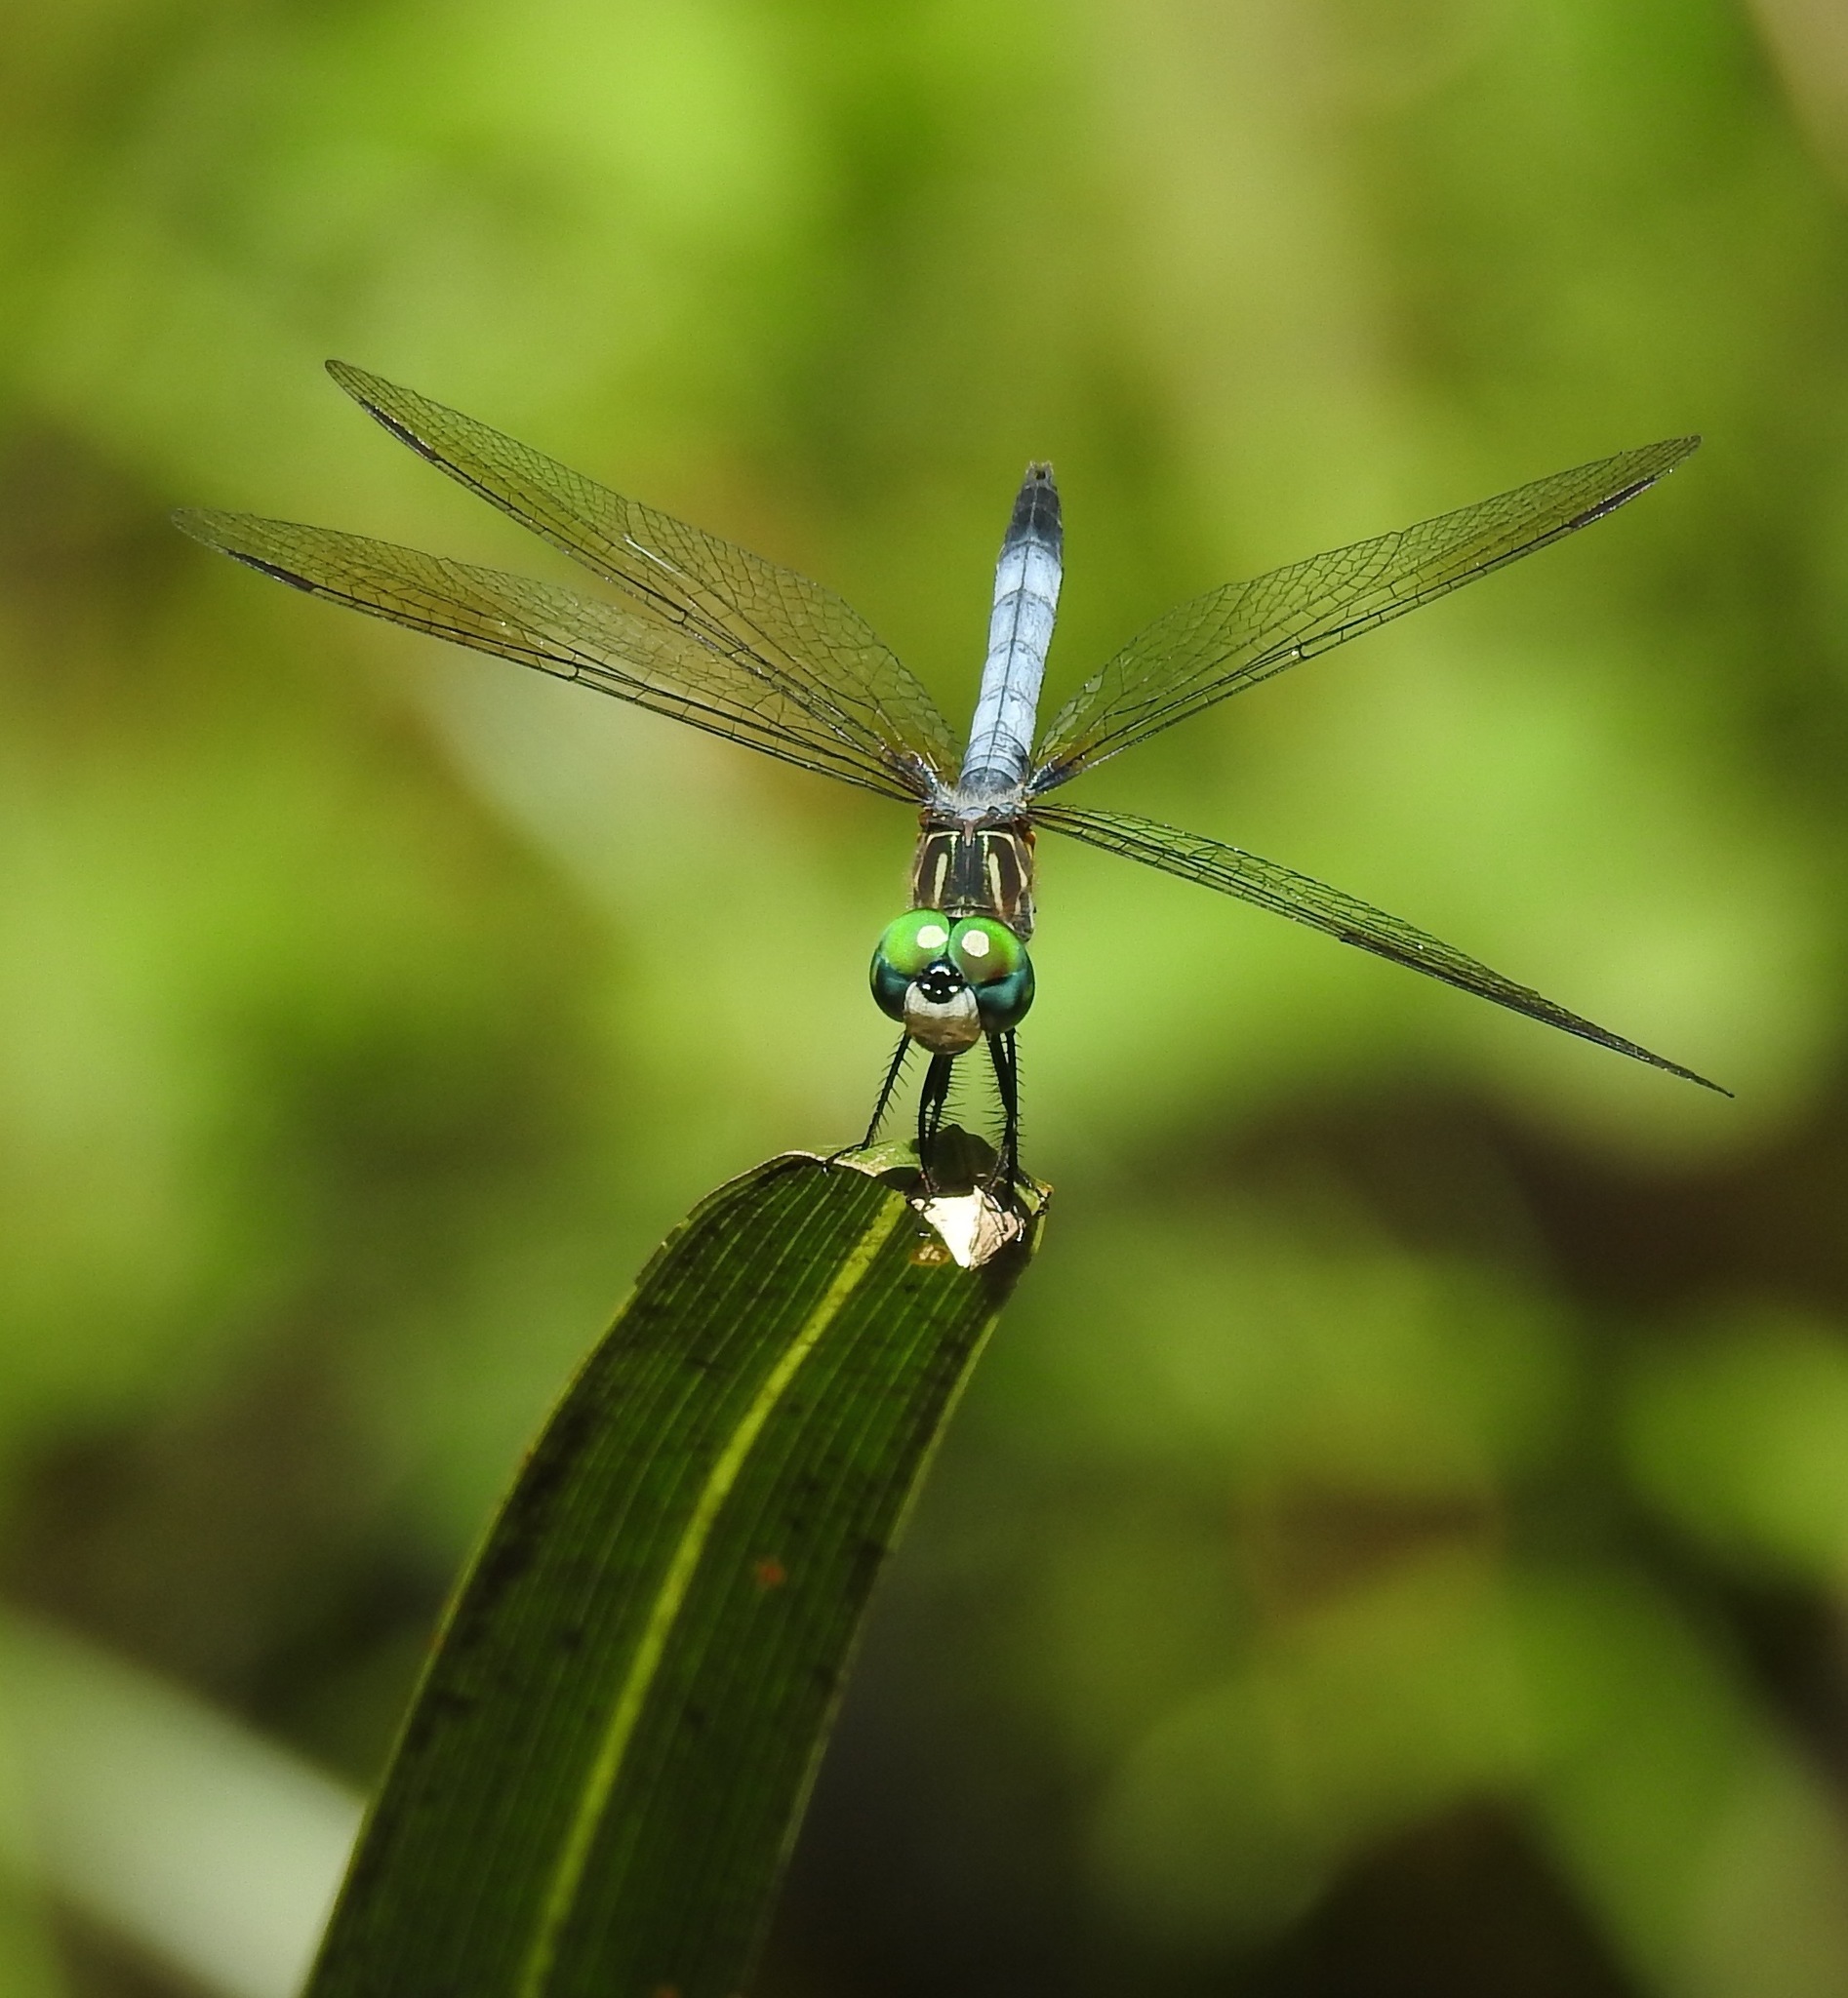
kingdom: Animalia
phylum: Arthropoda
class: Insecta
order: Odonata
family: Libellulidae
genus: Pachydiplax
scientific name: Pachydiplax longipennis
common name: Blue dasher
